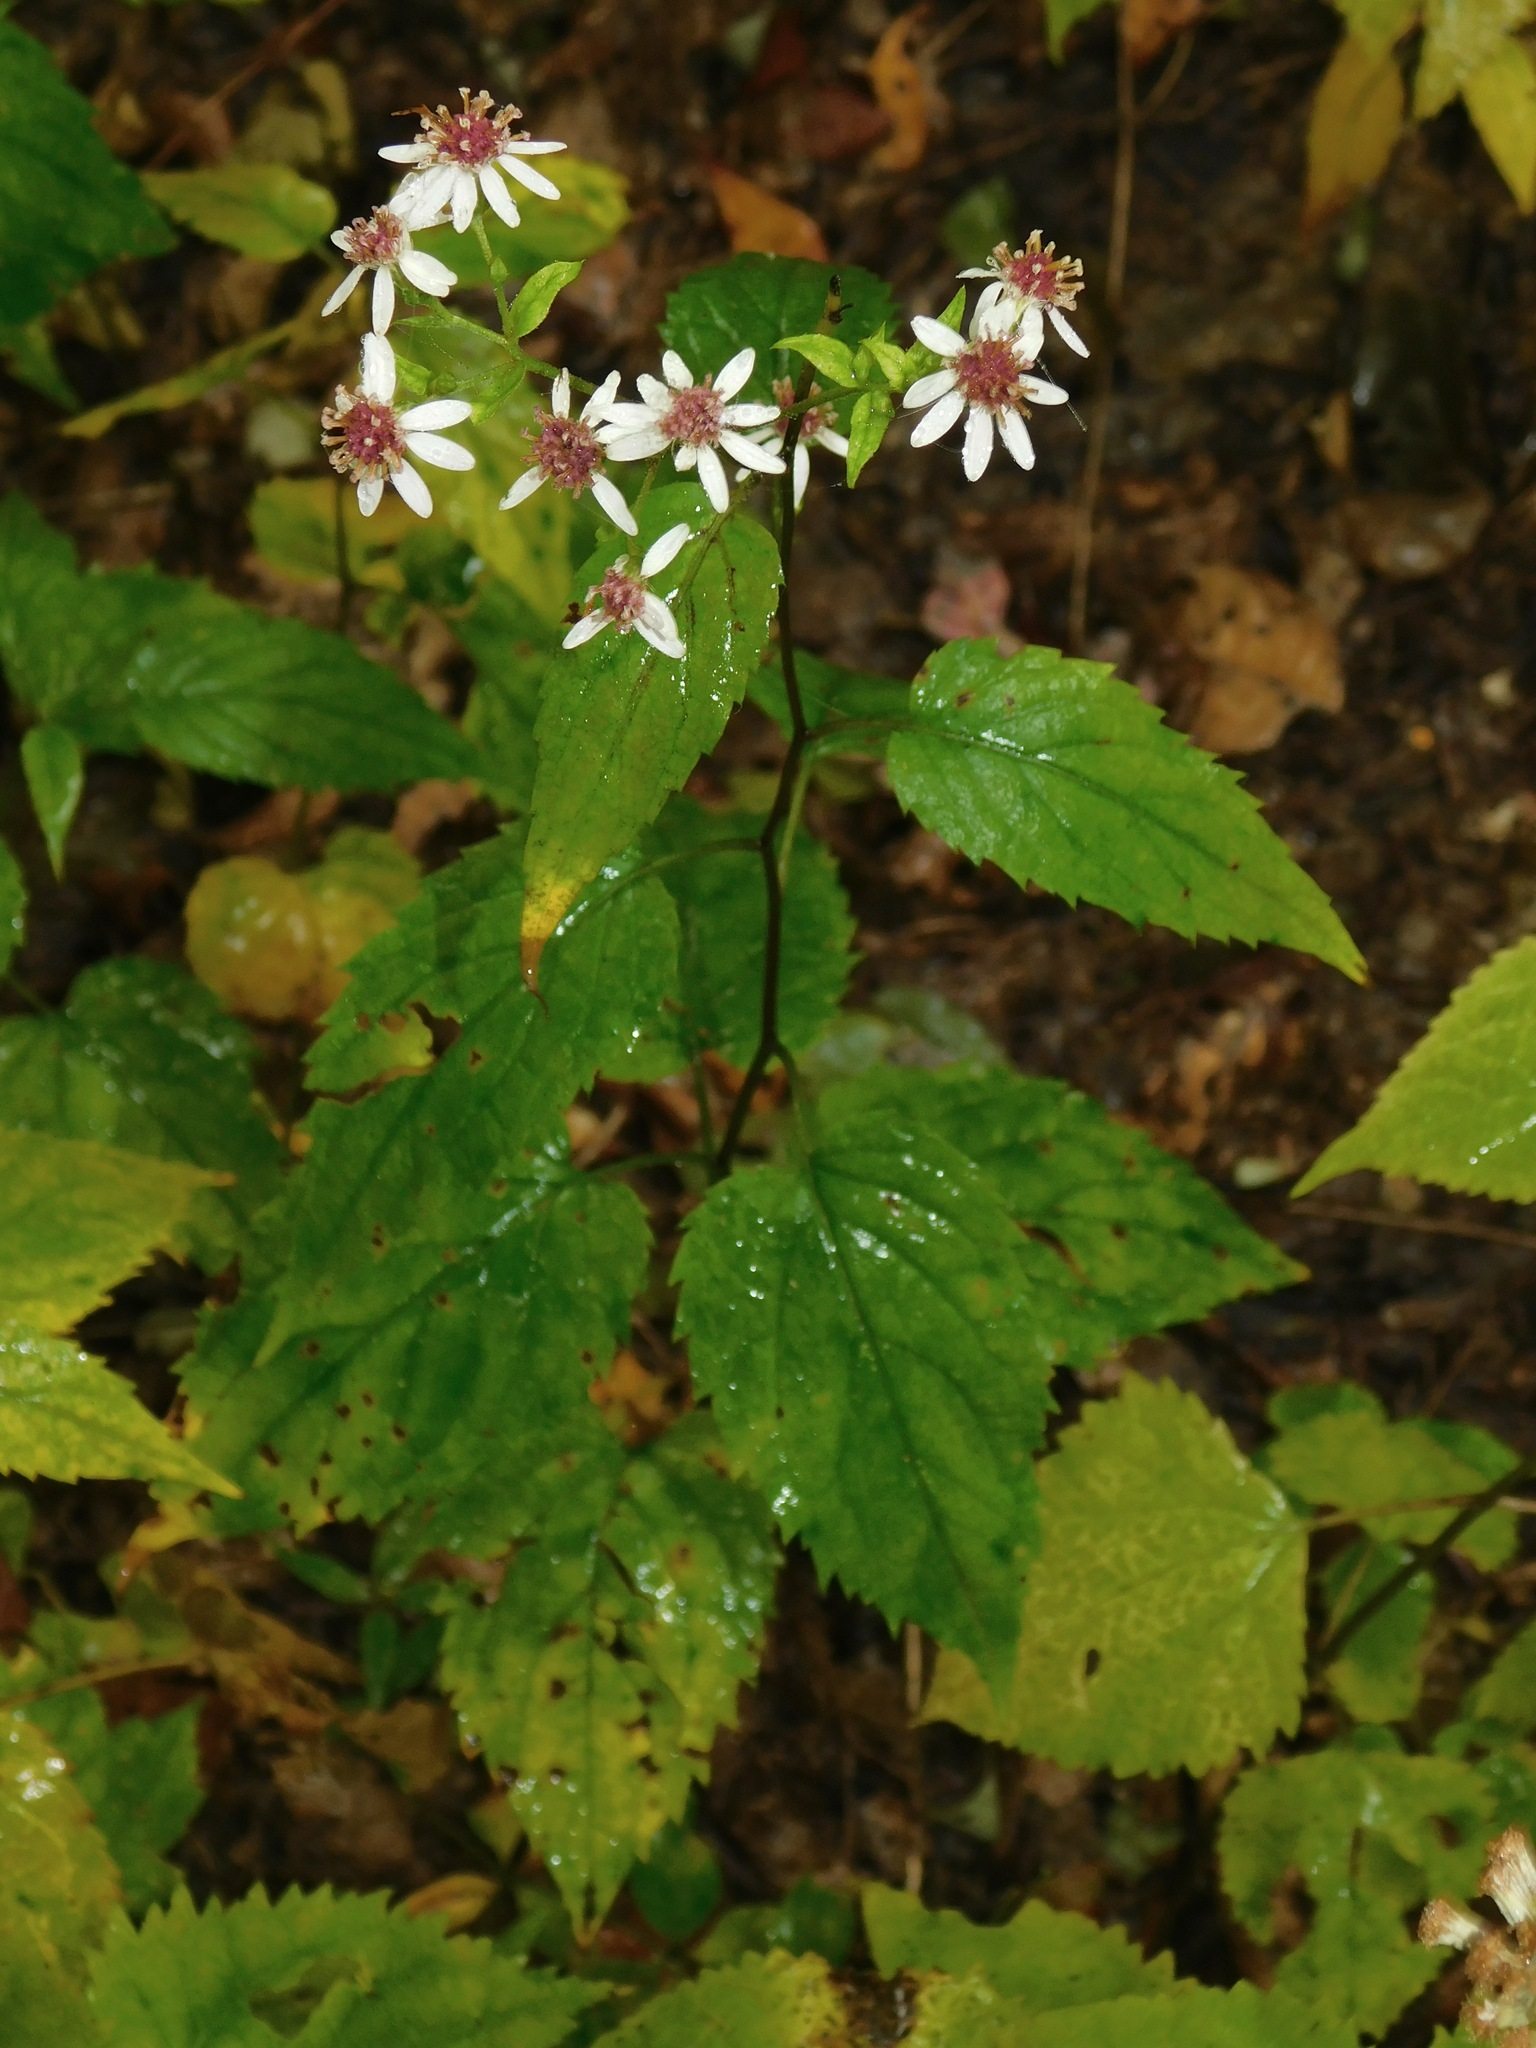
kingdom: Plantae
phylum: Tracheophyta
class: Magnoliopsida
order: Asterales
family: Asteraceae
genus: Eurybia
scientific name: Eurybia chlorolepis
